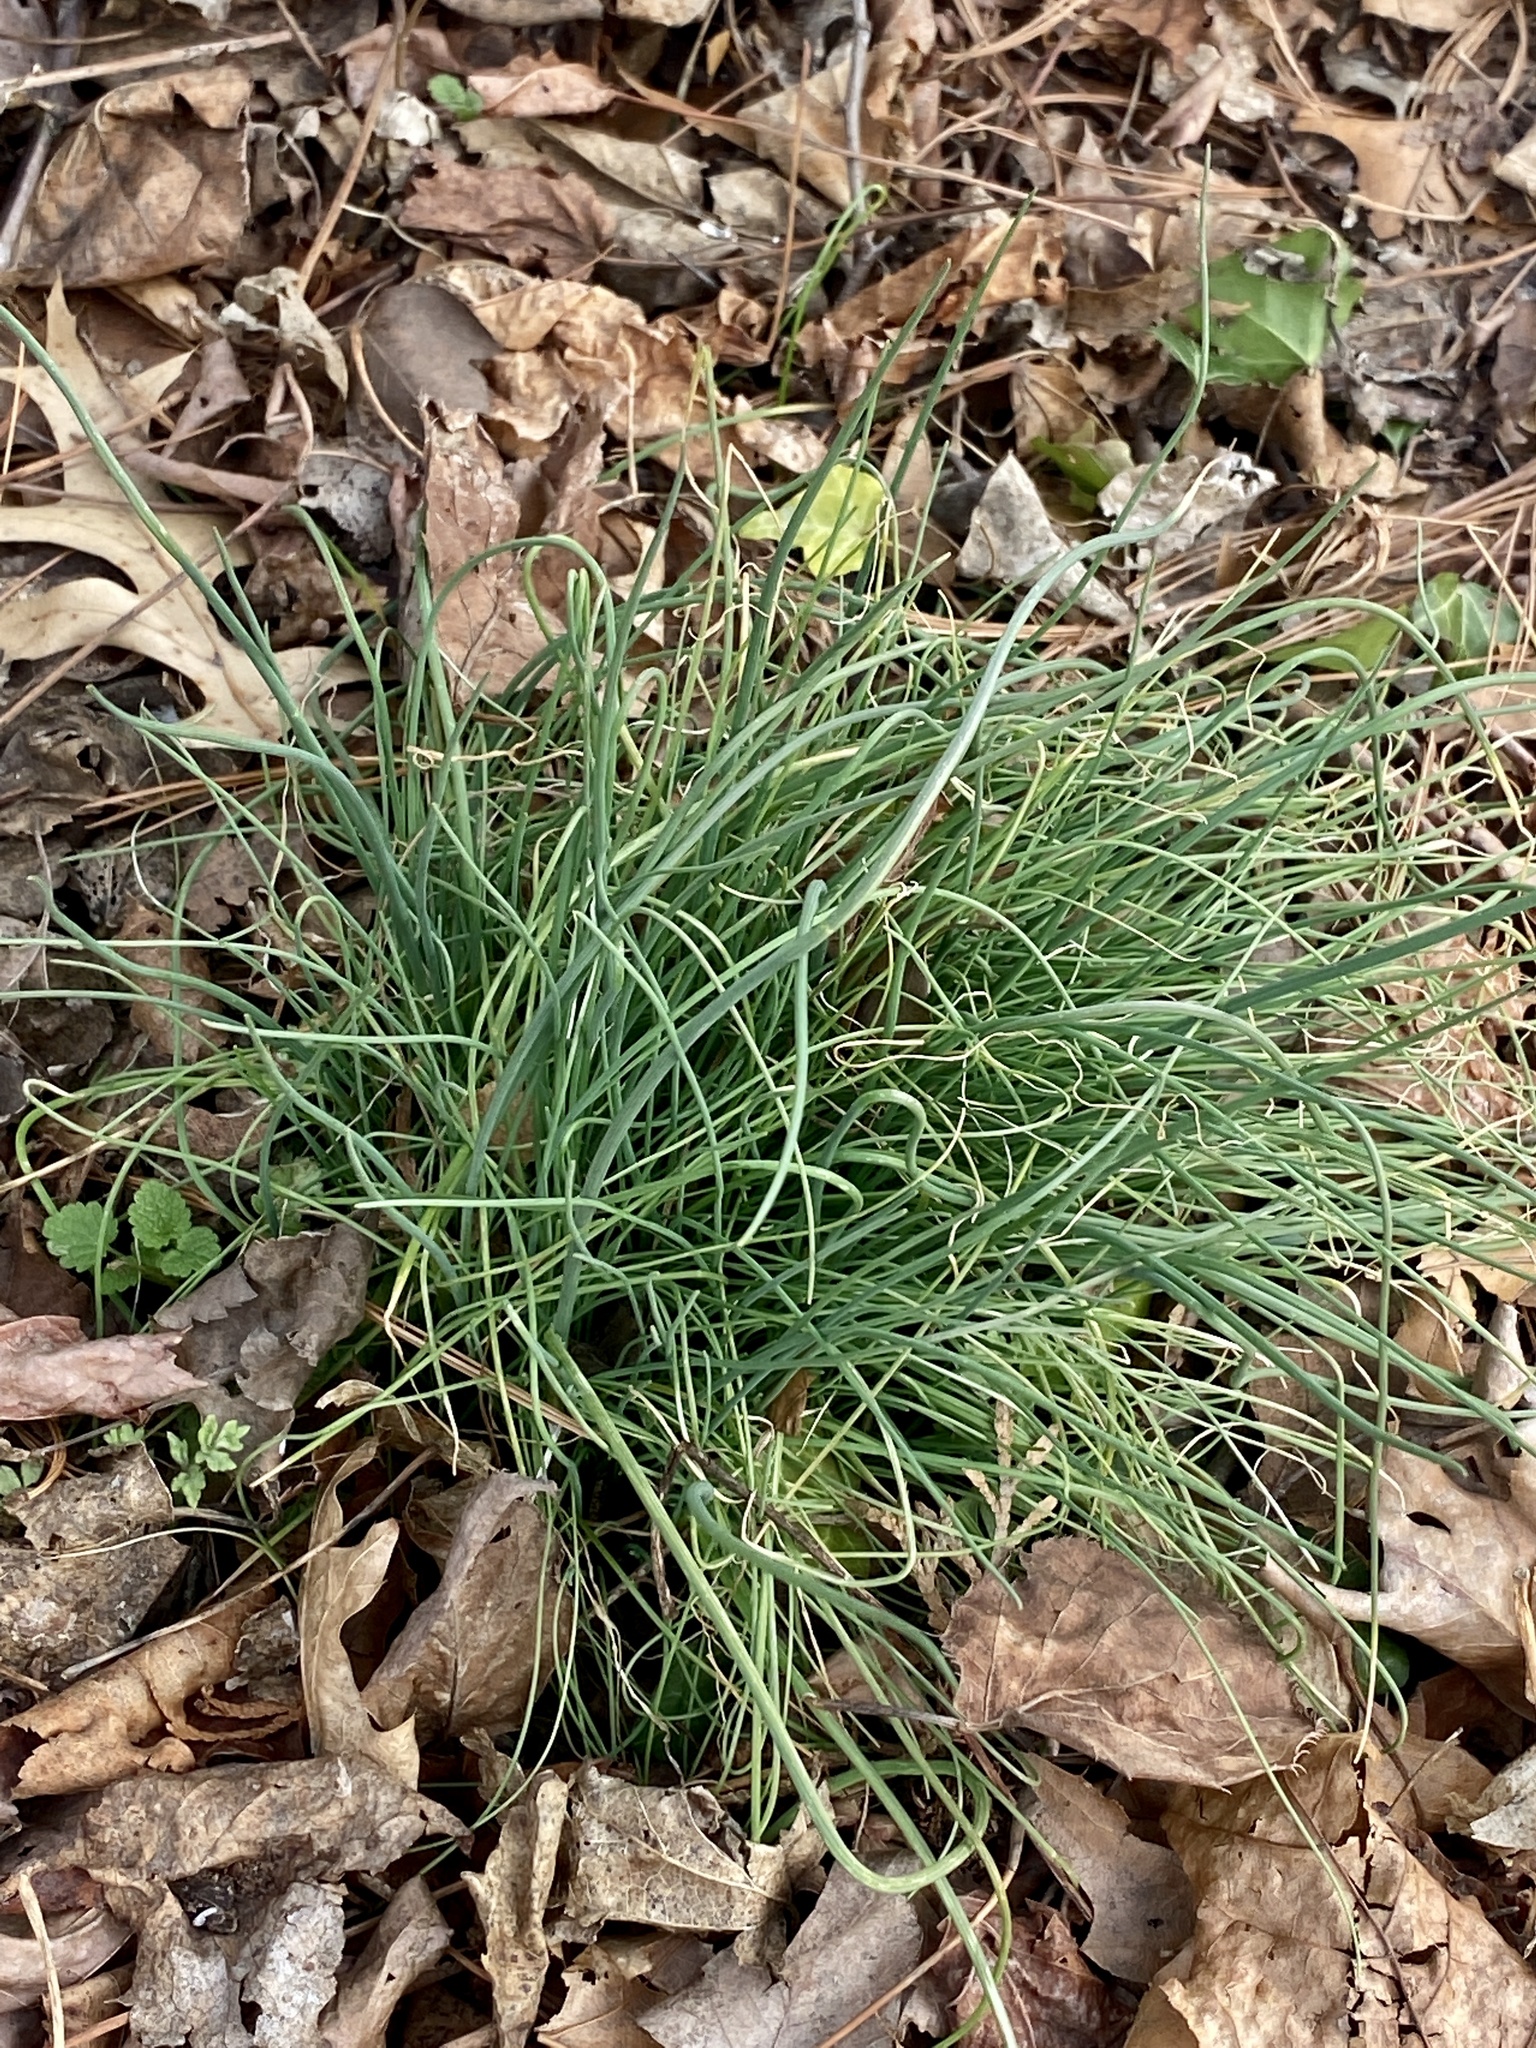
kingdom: Plantae
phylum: Tracheophyta
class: Liliopsida
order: Asparagales
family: Amaryllidaceae
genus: Allium
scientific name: Allium vineale
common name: Crow garlic
